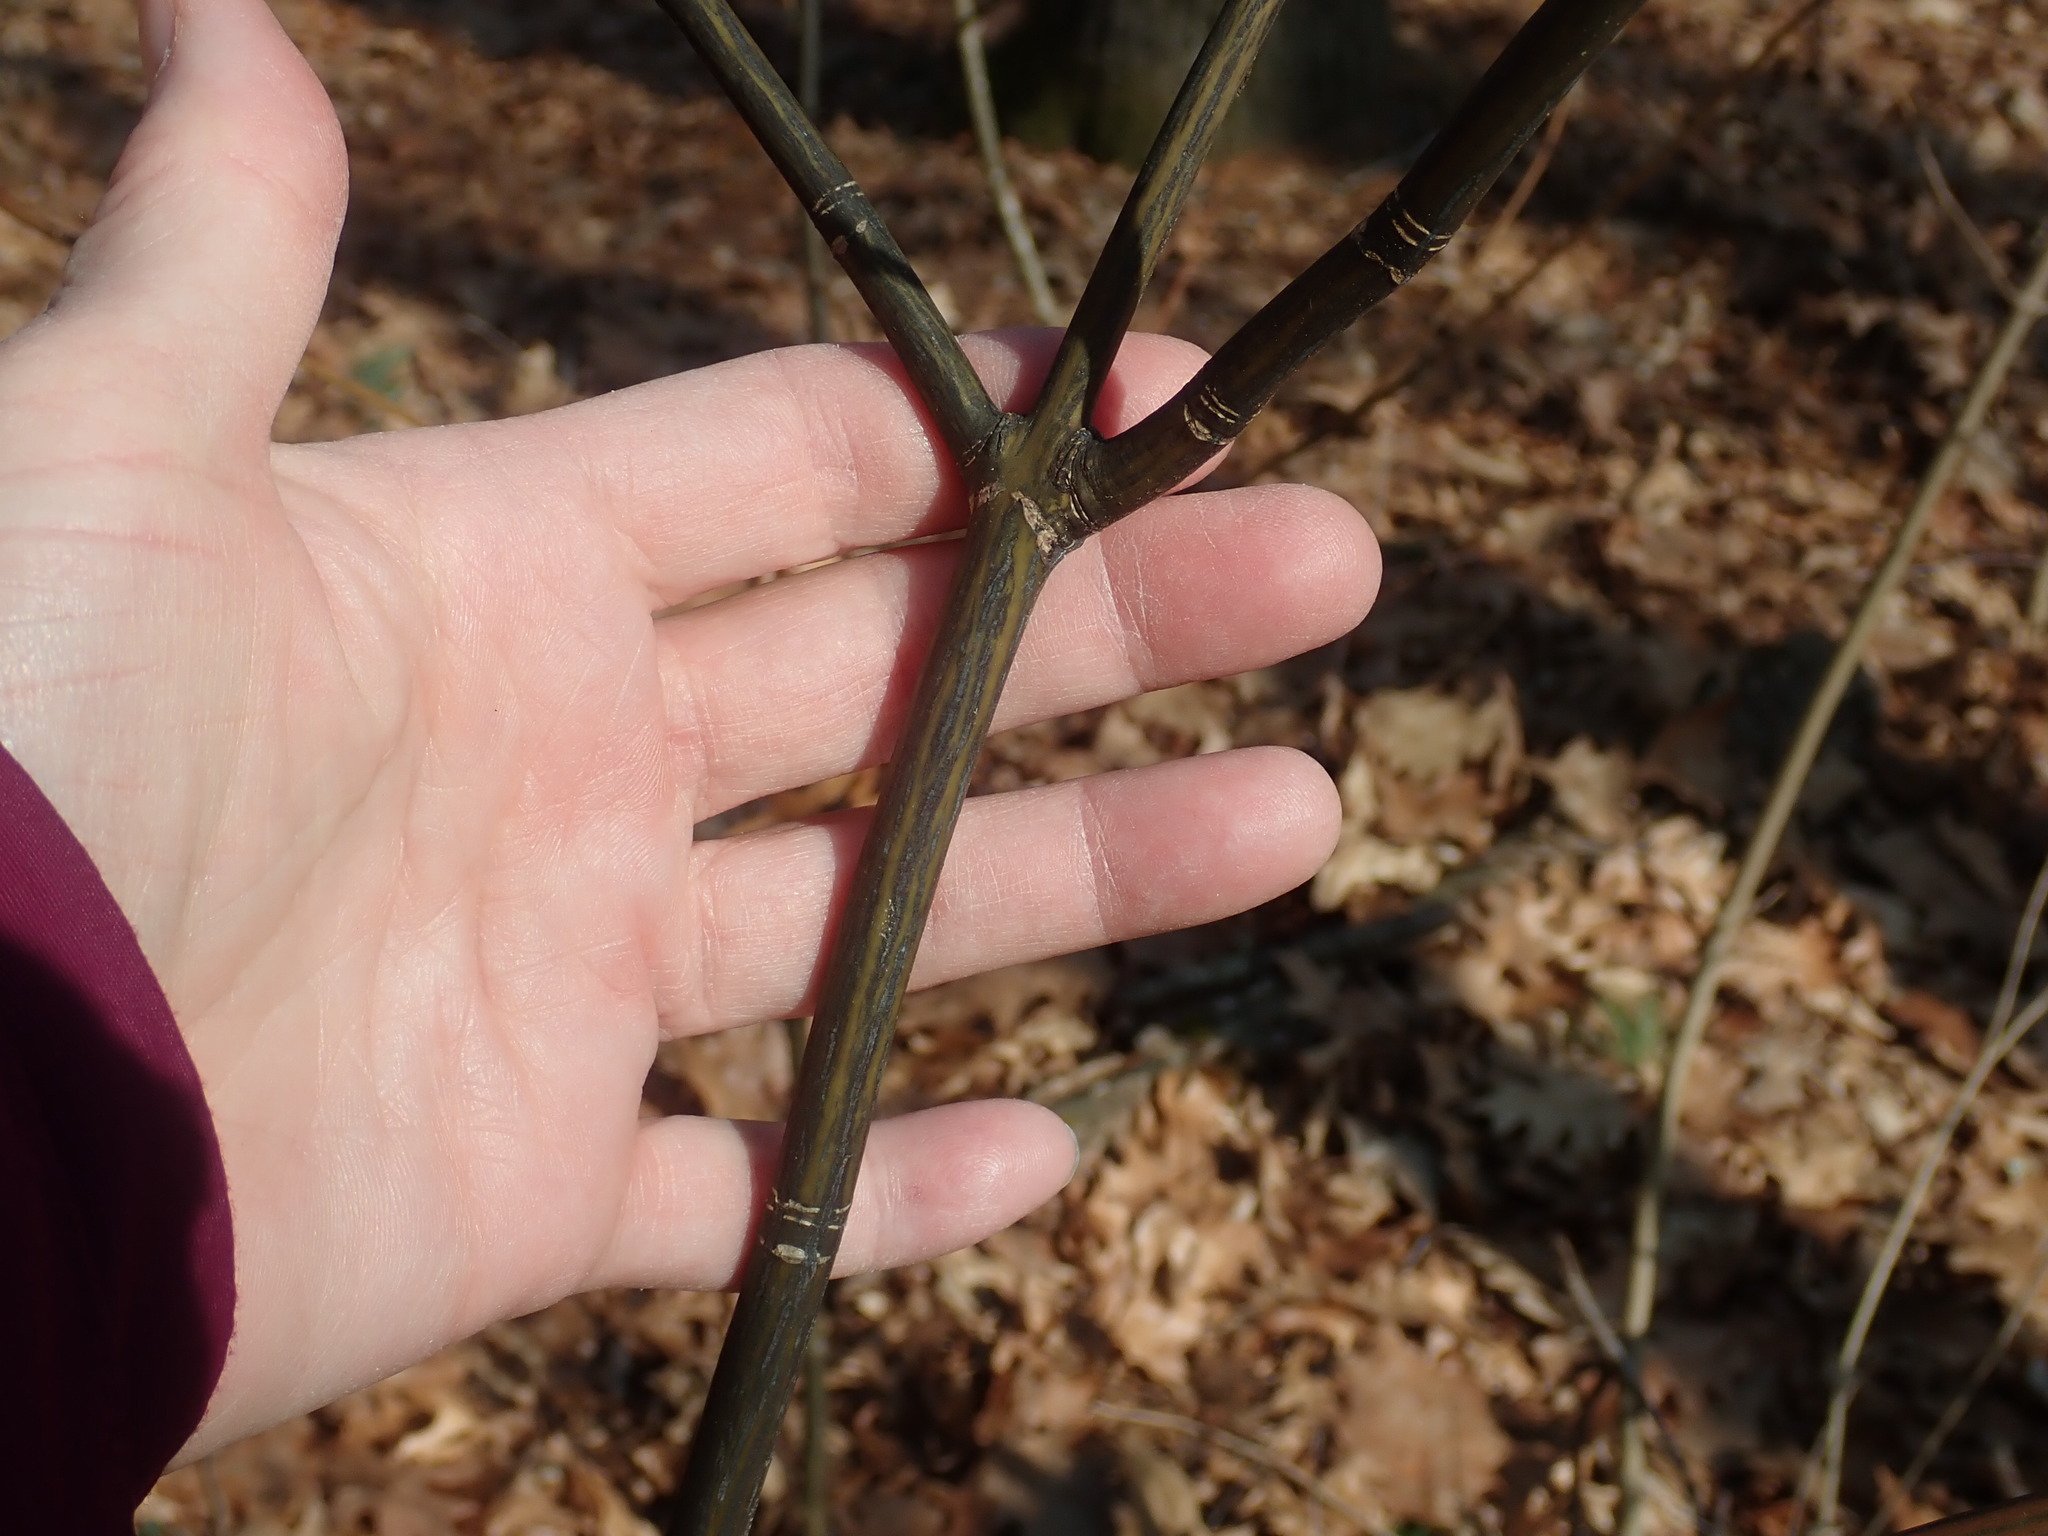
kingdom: Plantae
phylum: Tracheophyta
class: Magnoliopsida
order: Sapindales
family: Sapindaceae
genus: Acer
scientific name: Acer pensylvanicum
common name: Moosewood
